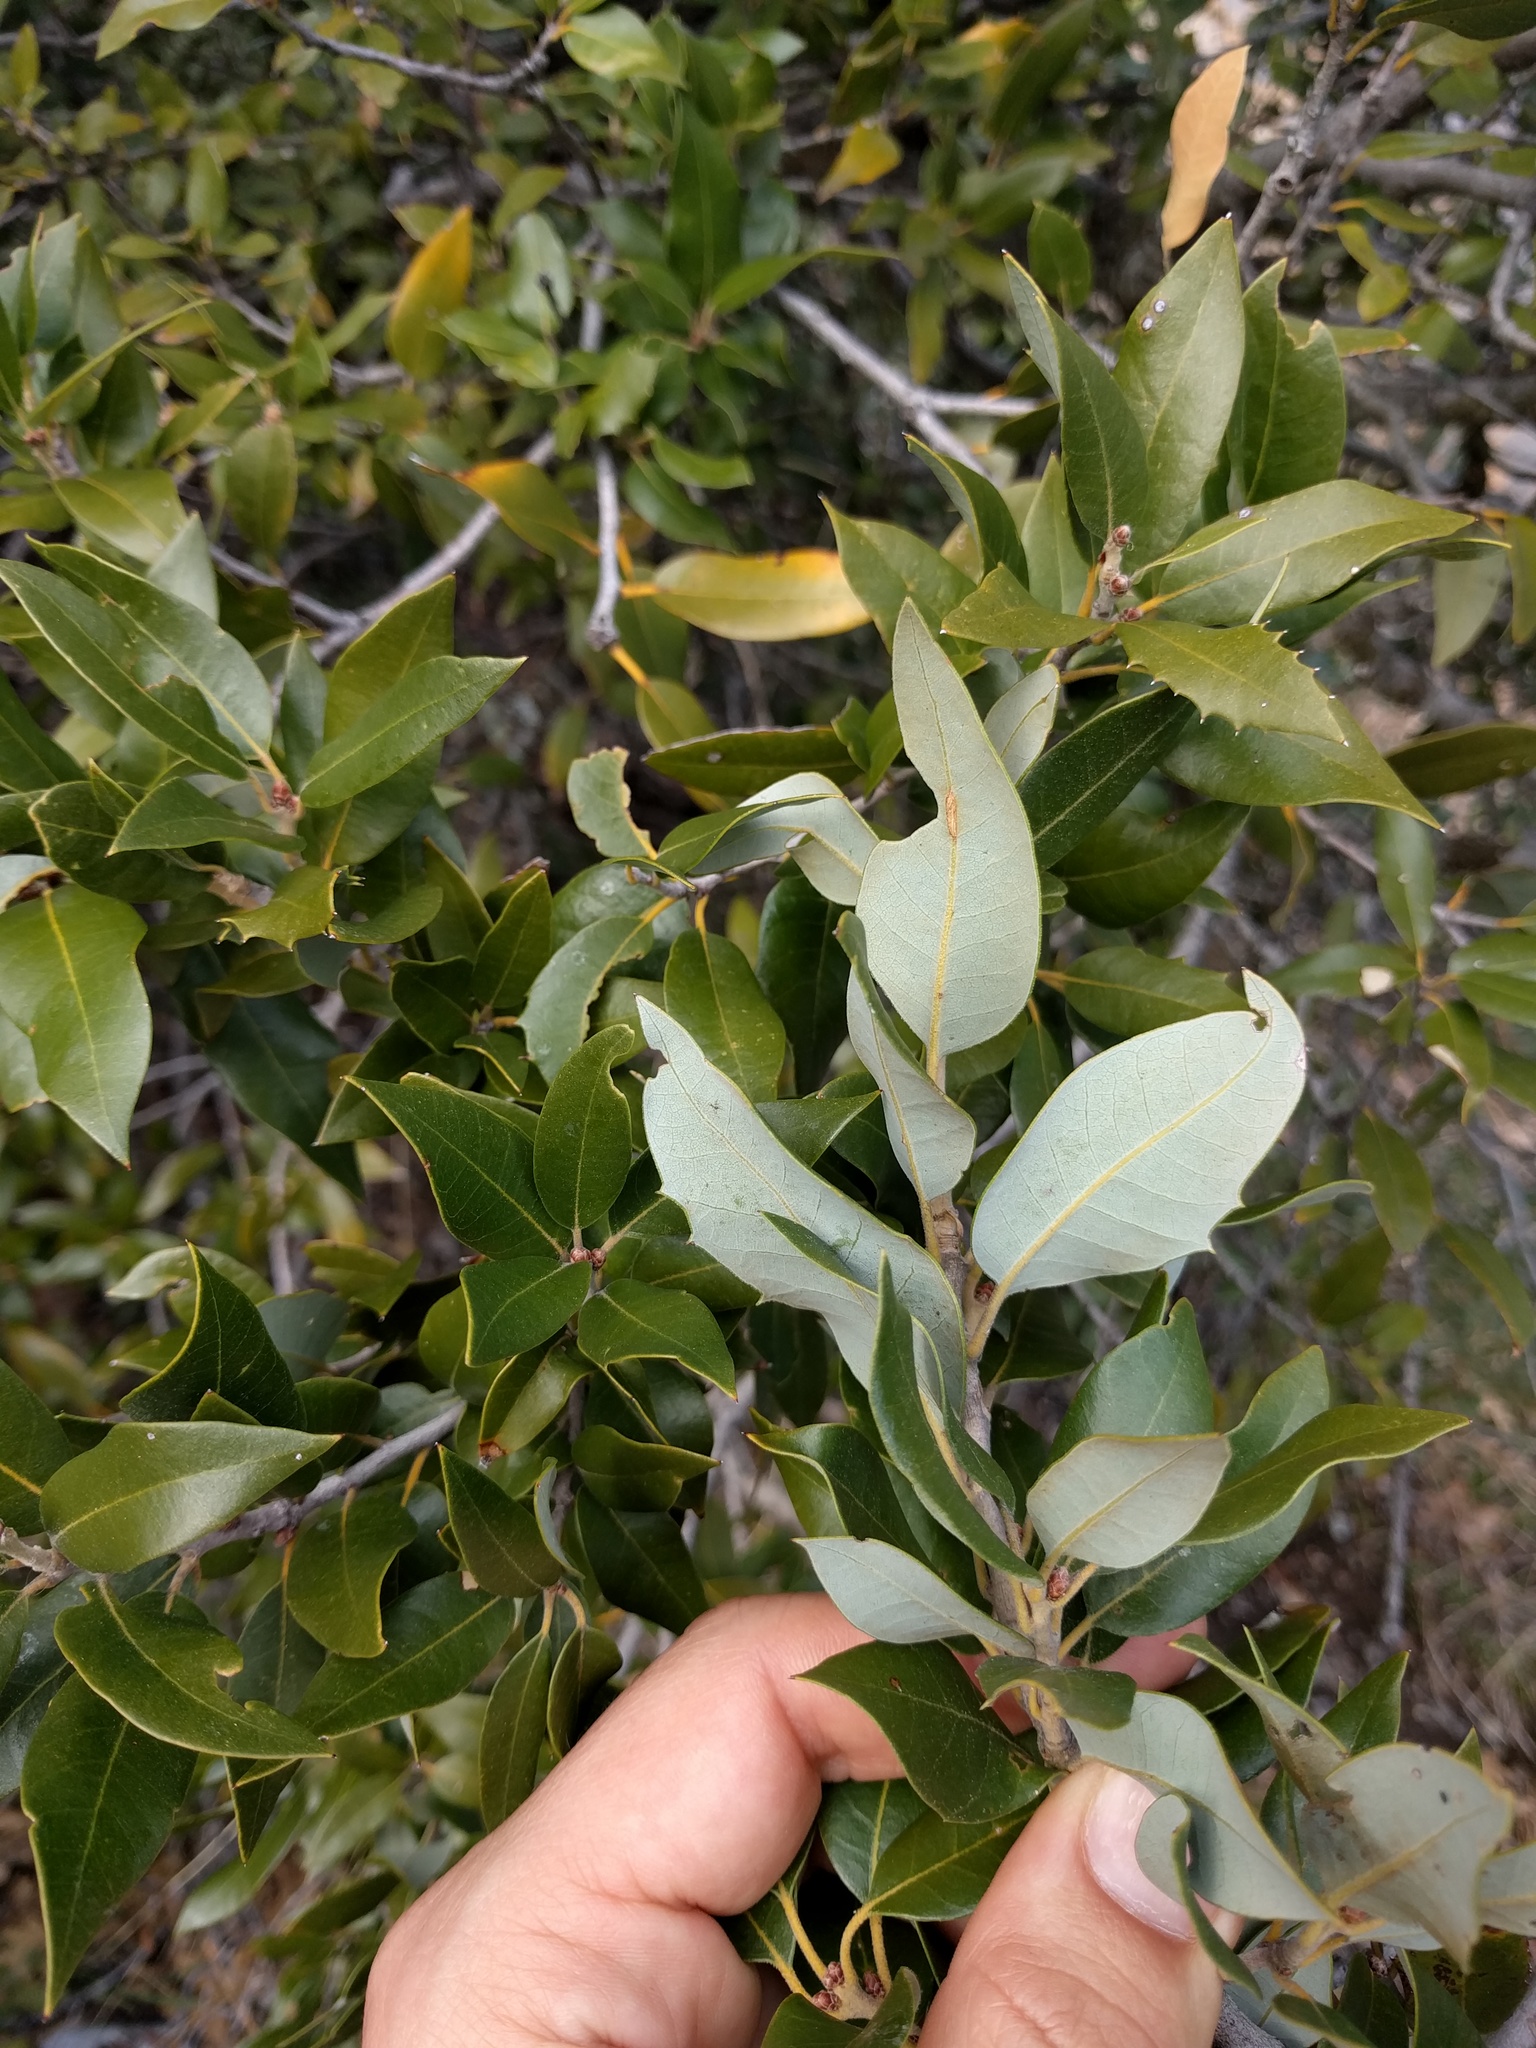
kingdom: Plantae
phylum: Tracheophyta
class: Magnoliopsida
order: Fagales
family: Fagaceae
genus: Quercus
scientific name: Quercus chrysolepis
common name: Canyon live oak
